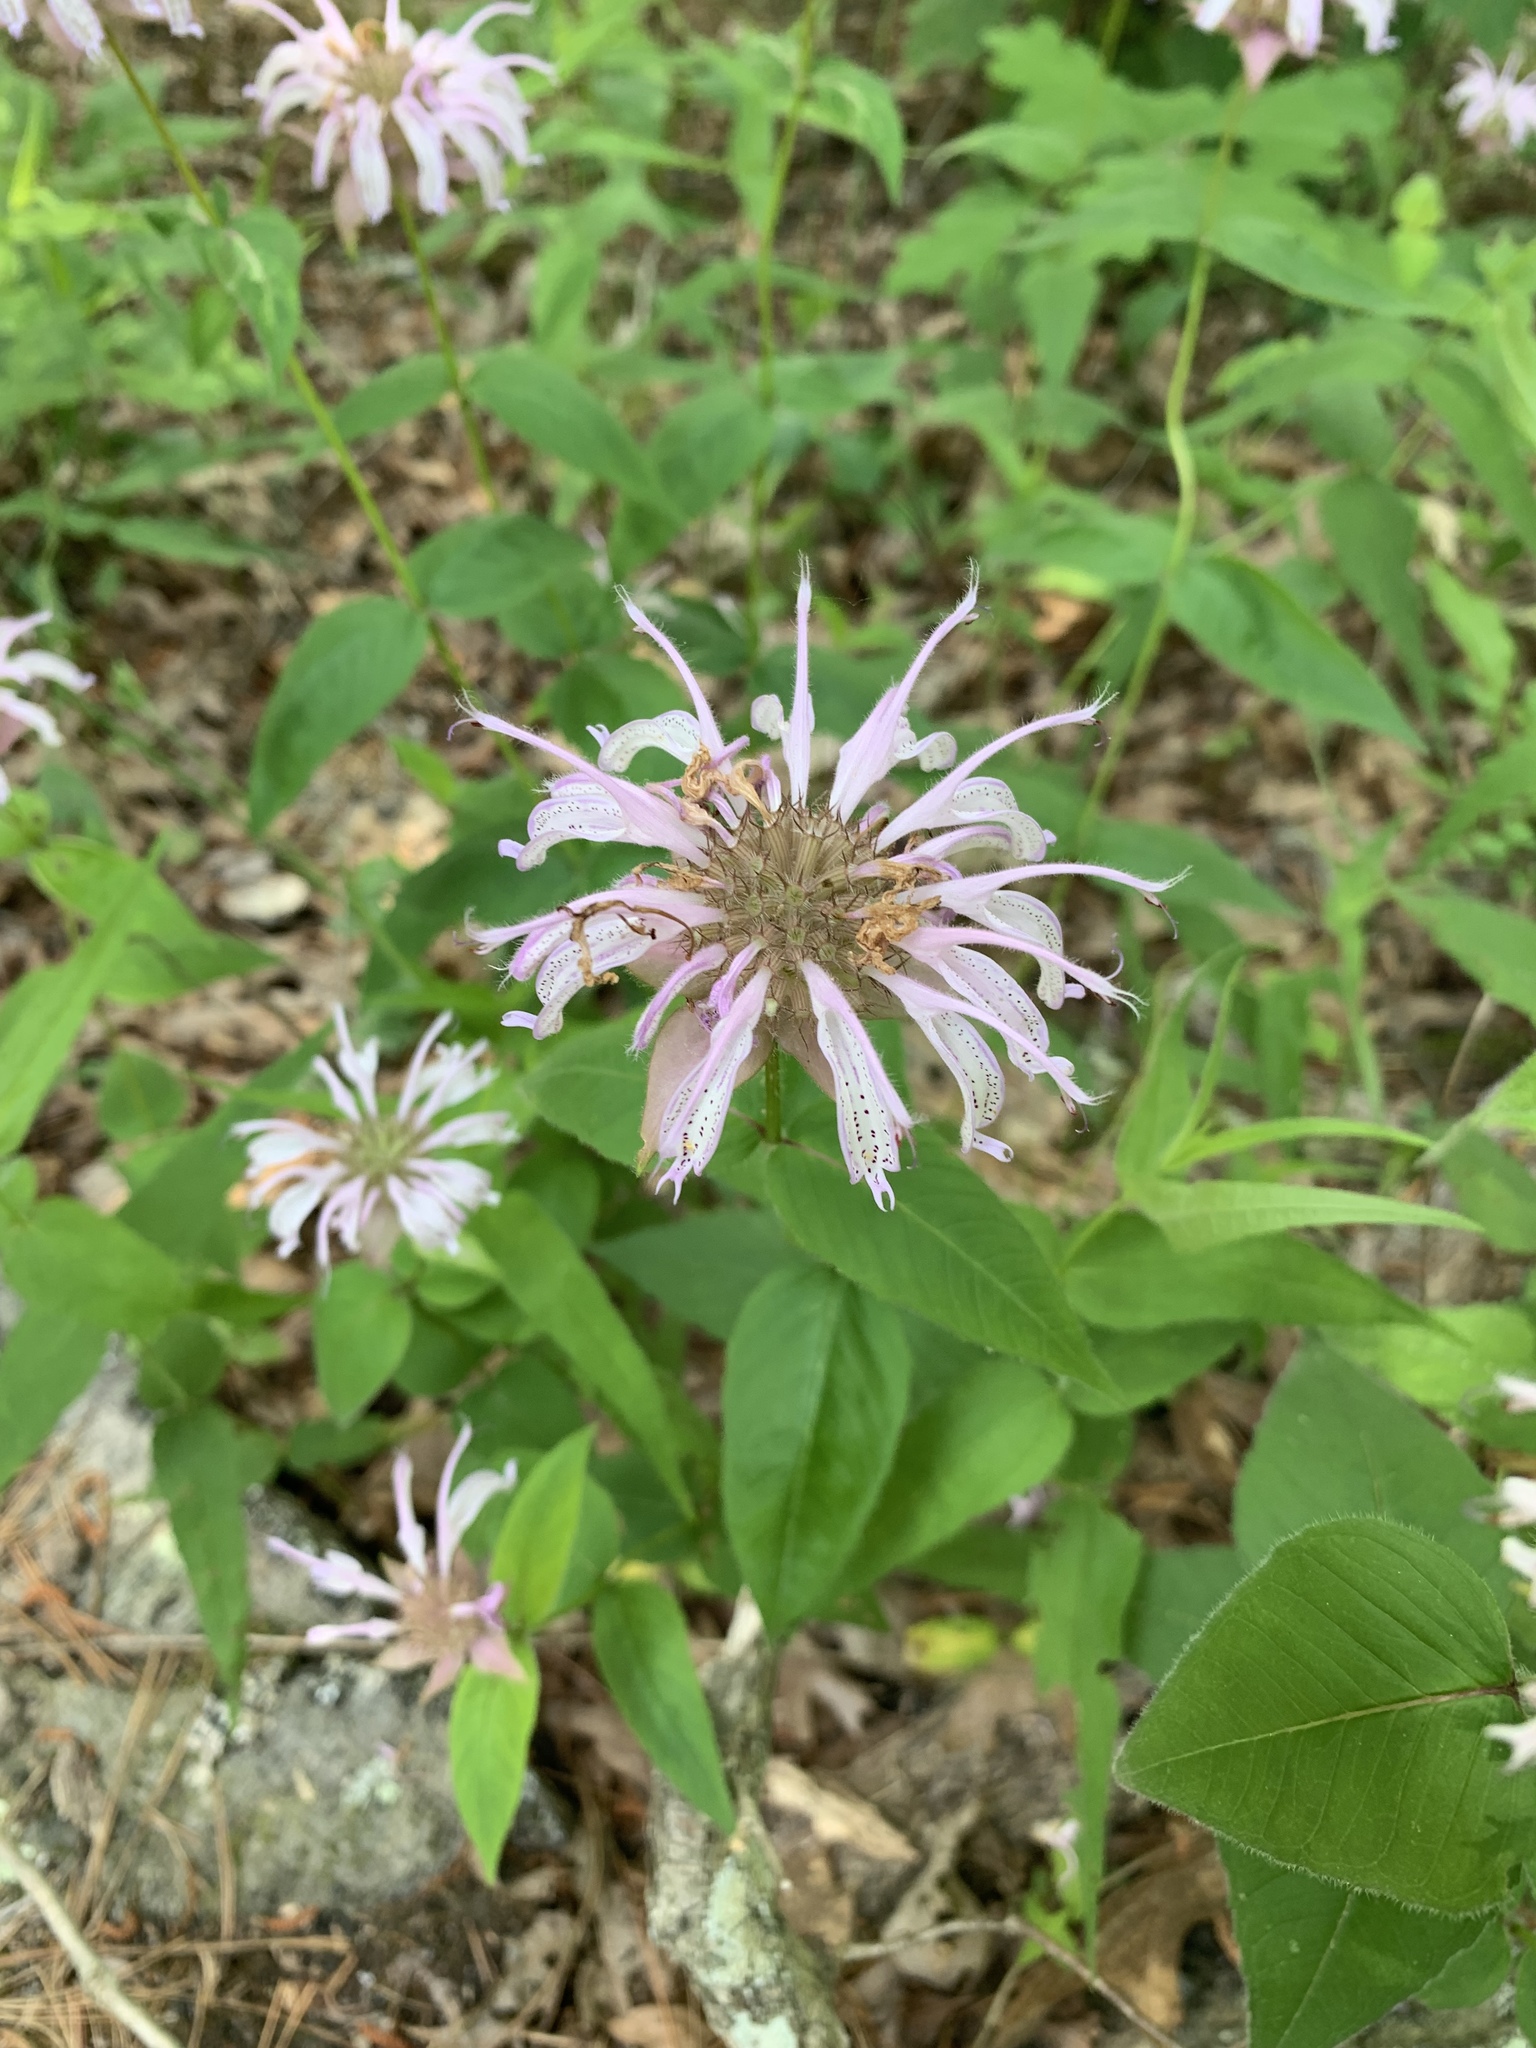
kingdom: Plantae
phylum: Tracheophyta
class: Magnoliopsida
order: Lamiales
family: Lamiaceae
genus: Monarda
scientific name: Monarda bradburiana
